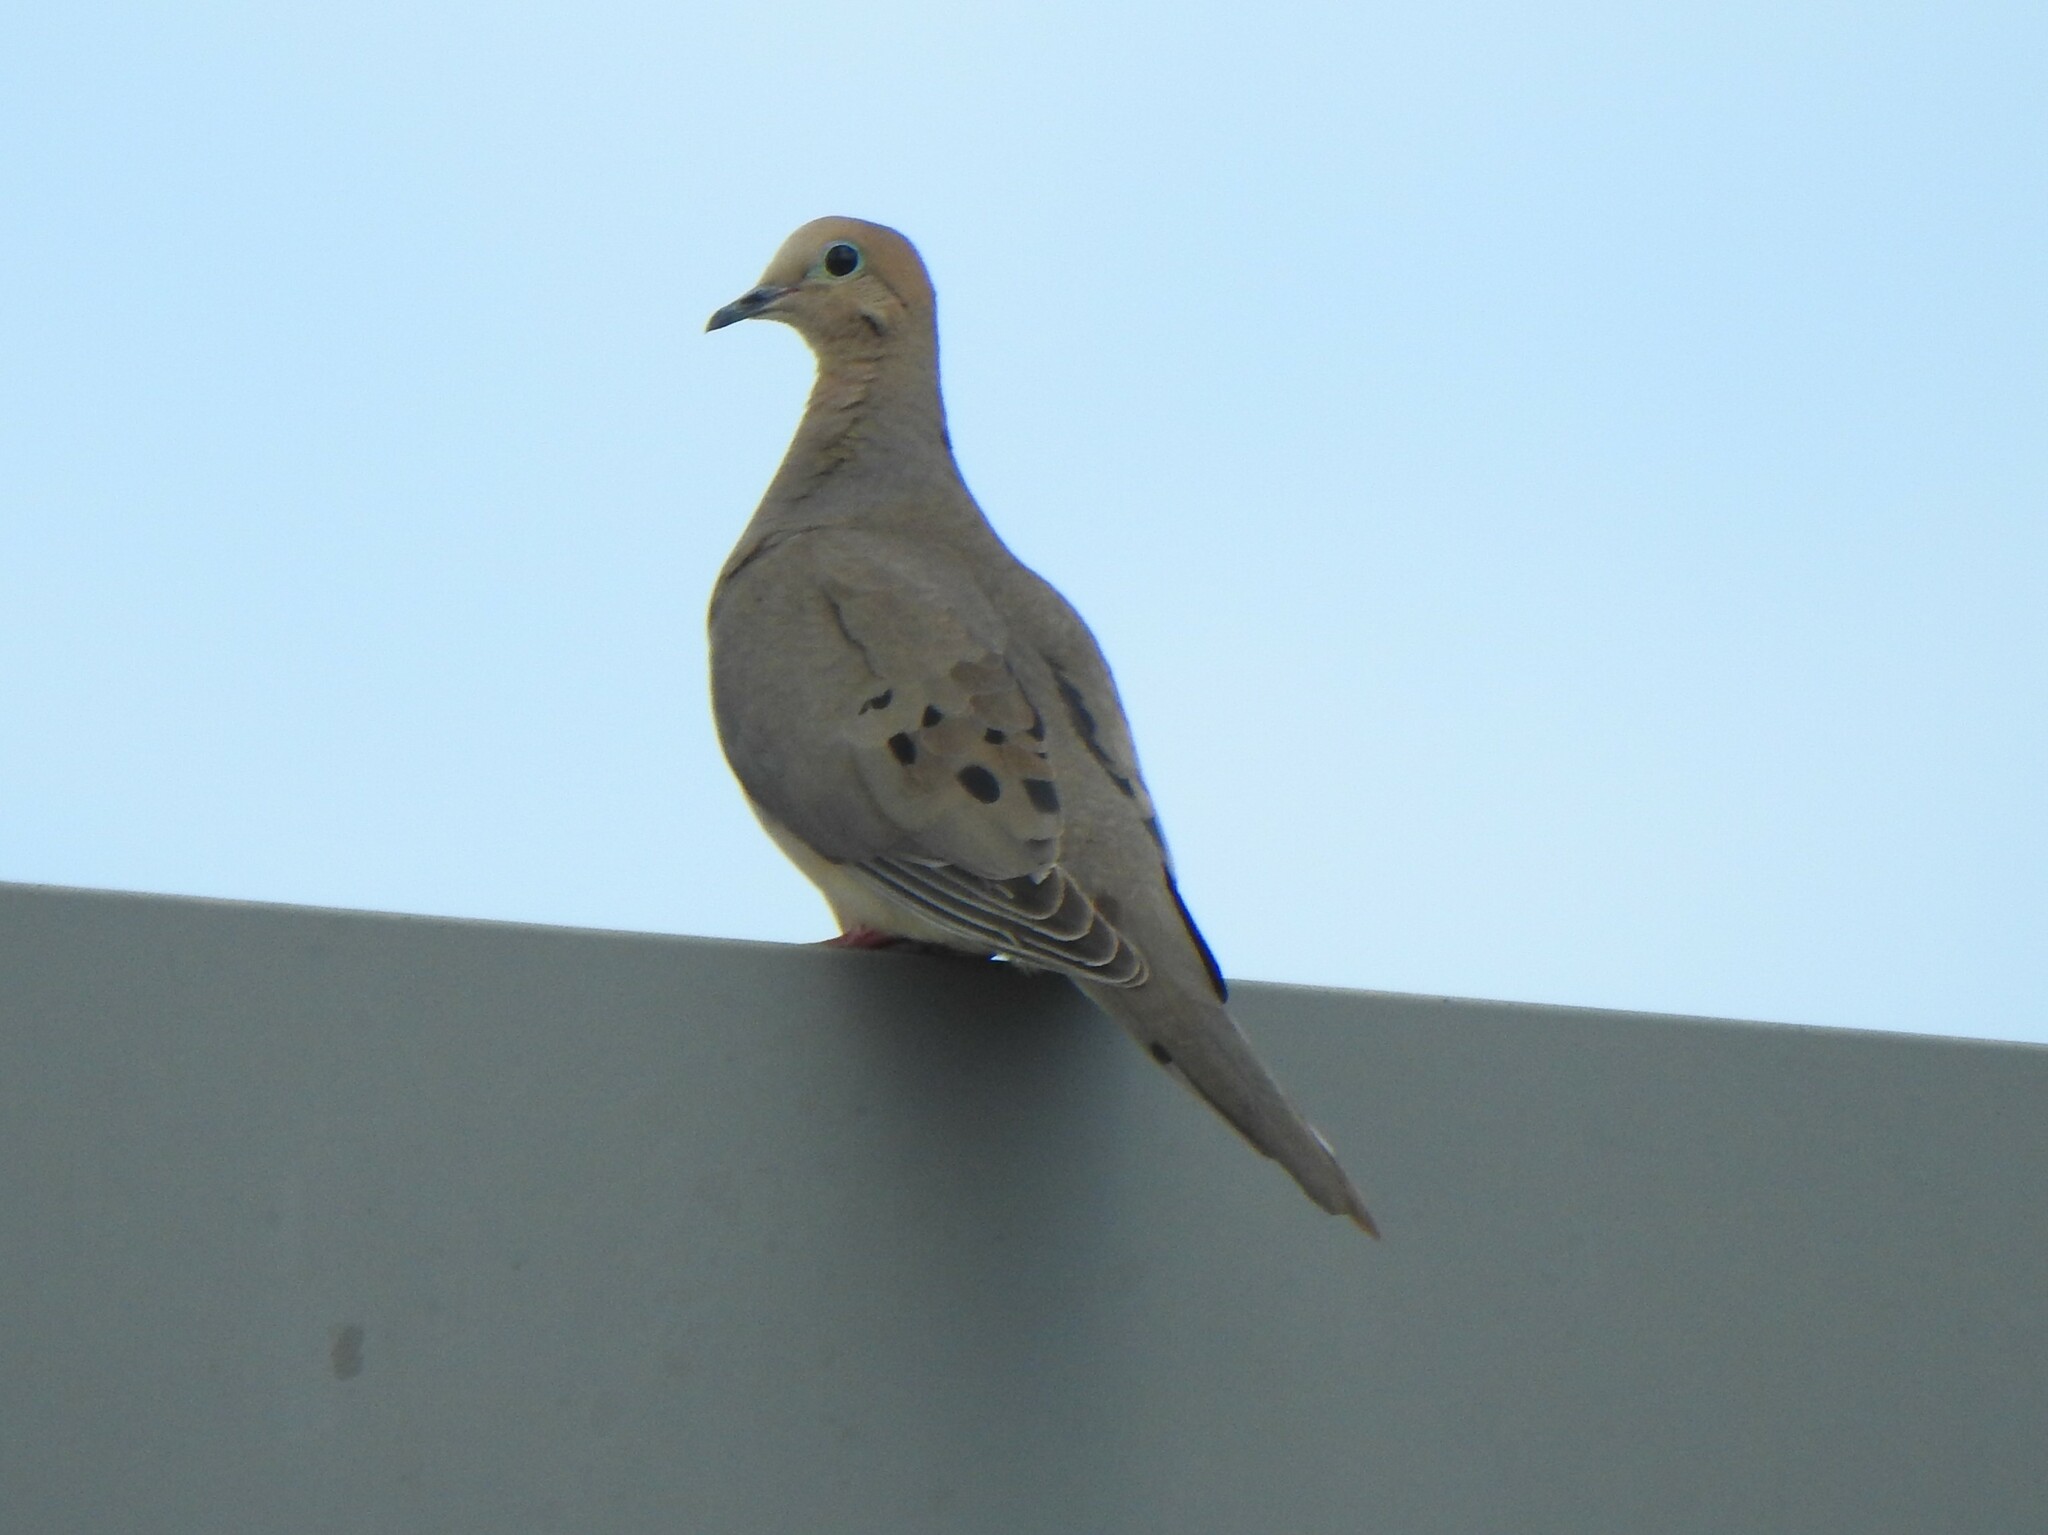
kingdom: Animalia
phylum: Chordata
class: Aves
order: Columbiformes
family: Columbidae
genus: Zenaida
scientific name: Zenaida macroura
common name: Mourning dove
